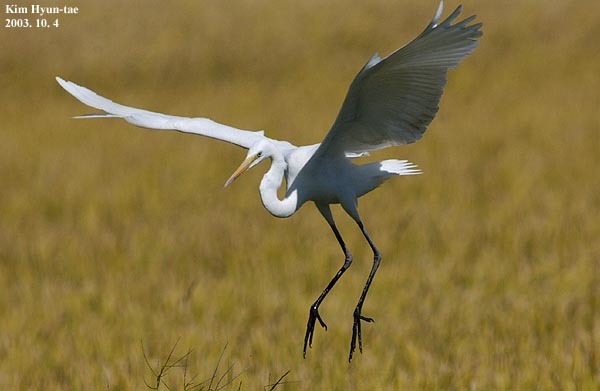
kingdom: Animalia
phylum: Chordata
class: Aves
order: Pelecaniformes
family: Ardeidae
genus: Ardea
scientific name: Ardea alba
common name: Great egret
